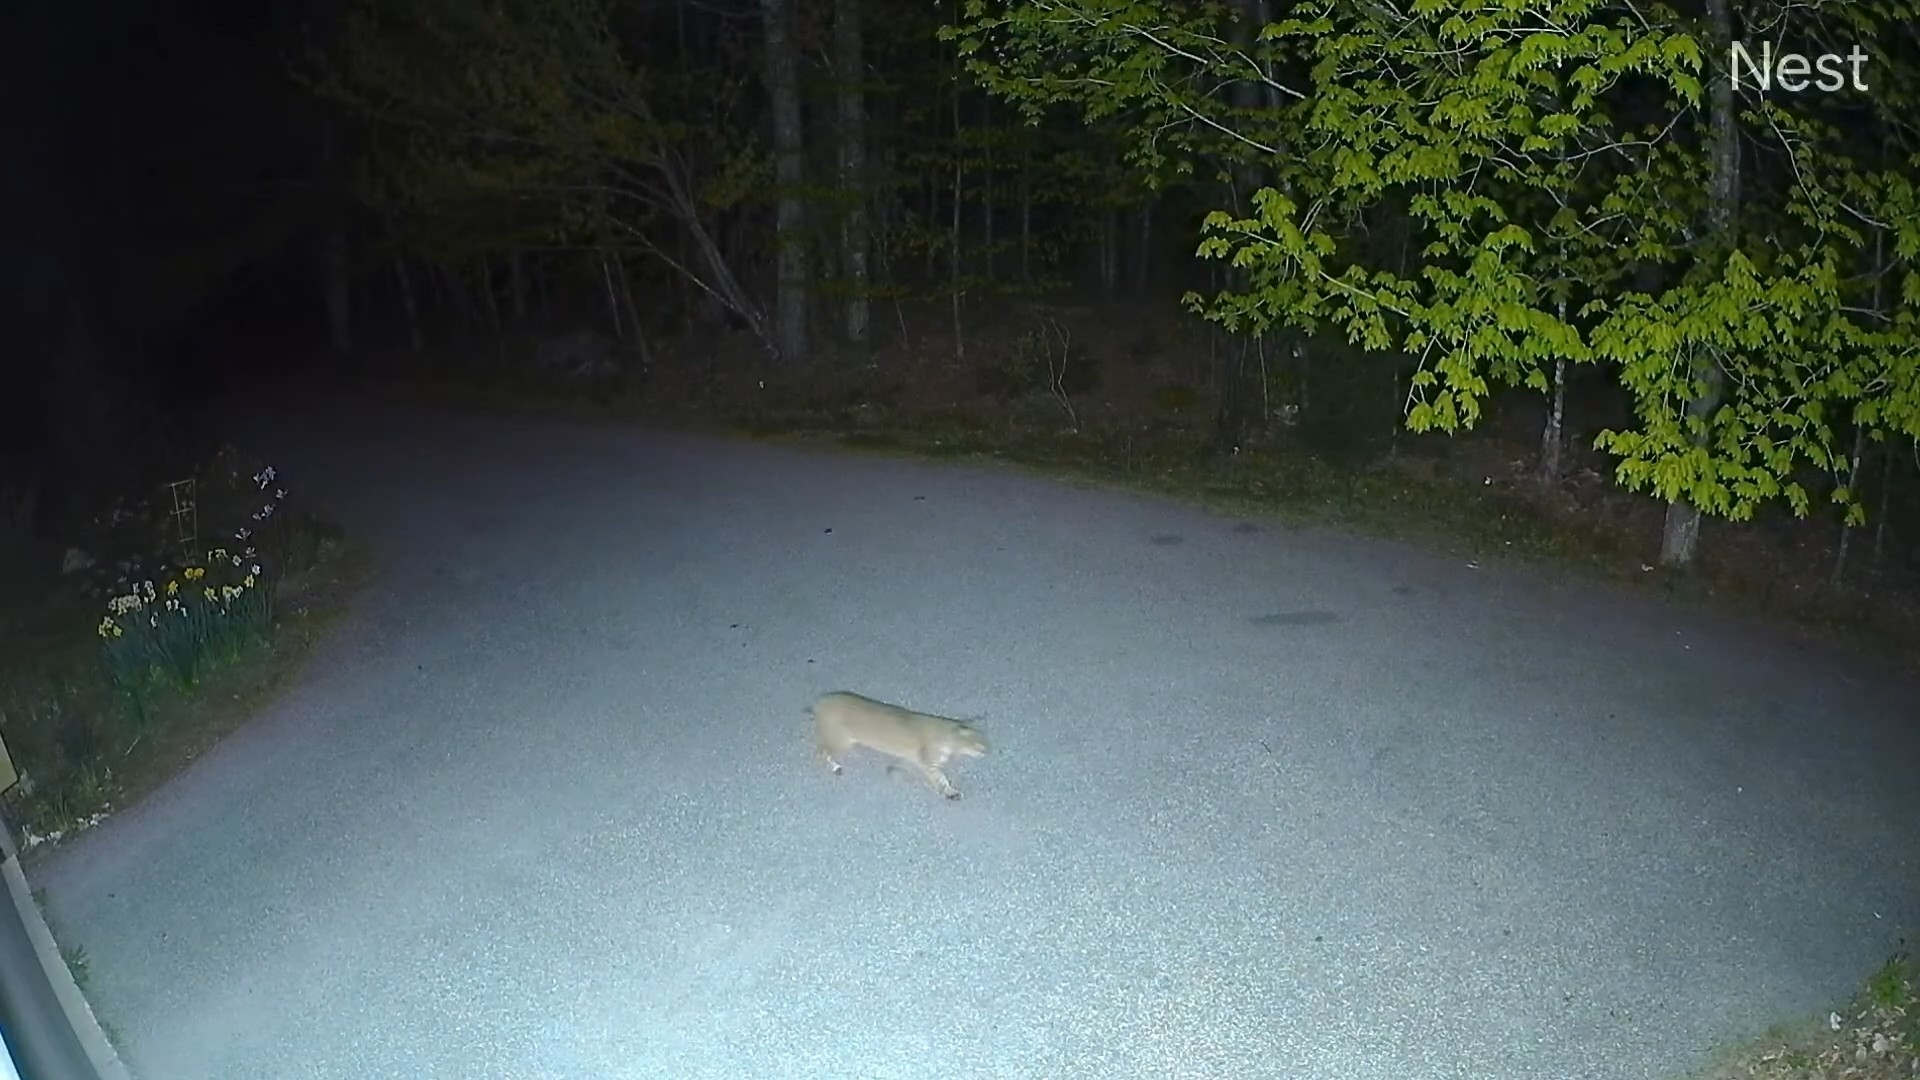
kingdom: Animalia
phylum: Chordata
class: Mammalia
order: Carnivora
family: Felidae
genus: Lynx
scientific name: Lynx rufus
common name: Bobcat
